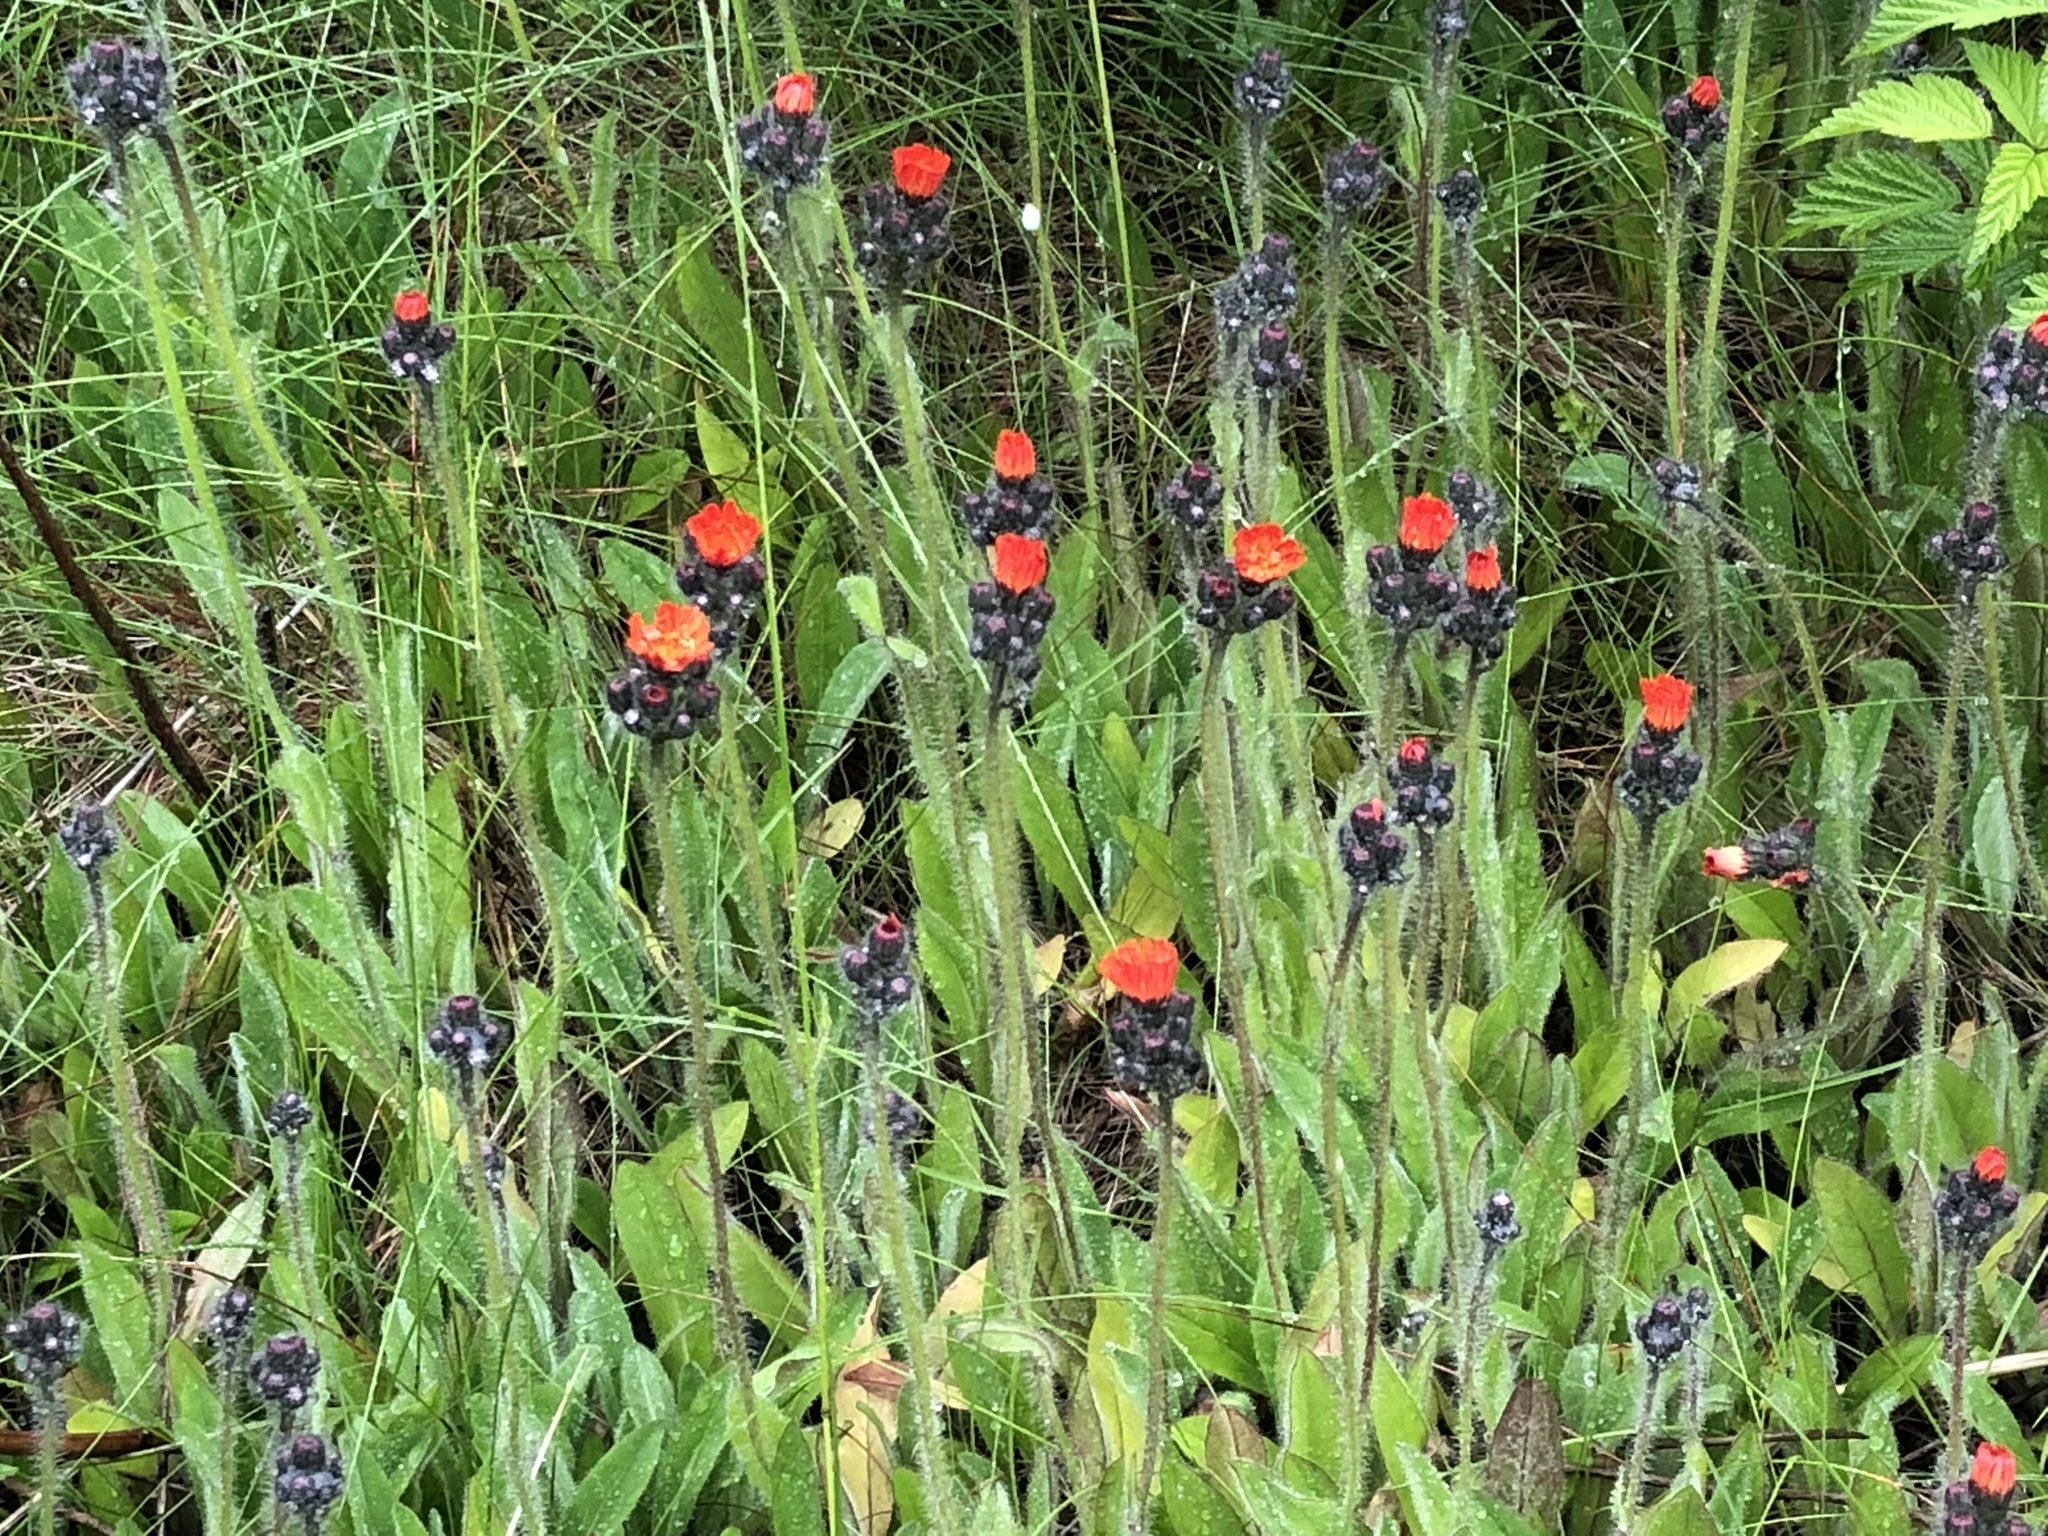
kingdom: Plantae
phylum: Tracheophyta
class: Magnoliopsida
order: Asterales
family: Asteraceae
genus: Pilosella
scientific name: Pilosella aurantiaca
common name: Fox-and-cubs
